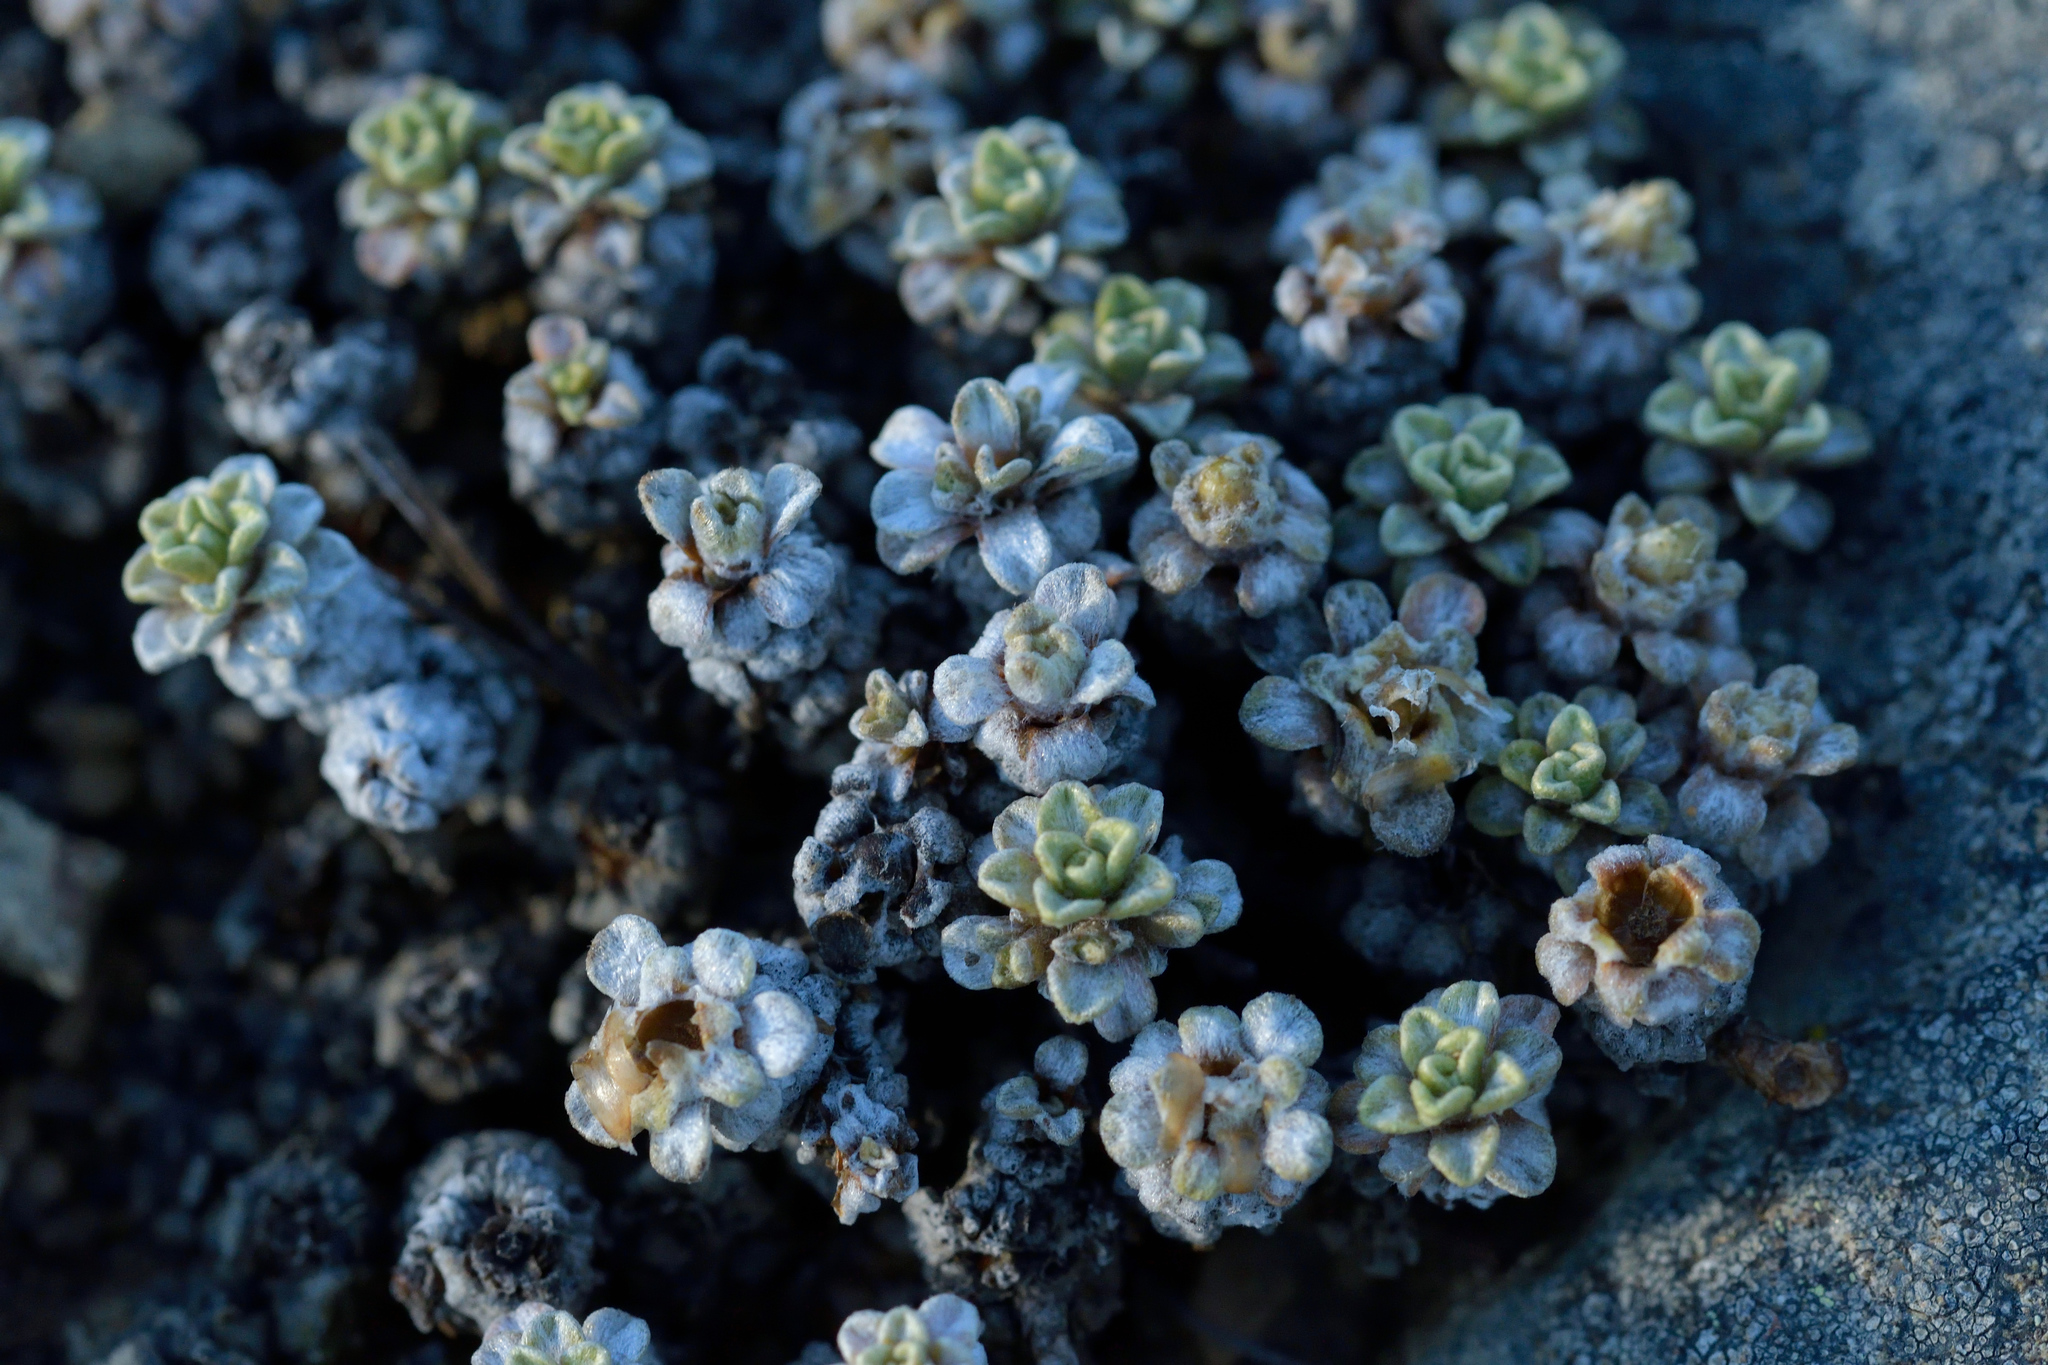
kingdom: Plantae
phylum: Tracheophyta
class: Magnoliopsida
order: Asterales
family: Asteraceae
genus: Raoulia
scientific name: Raoulia parkii
